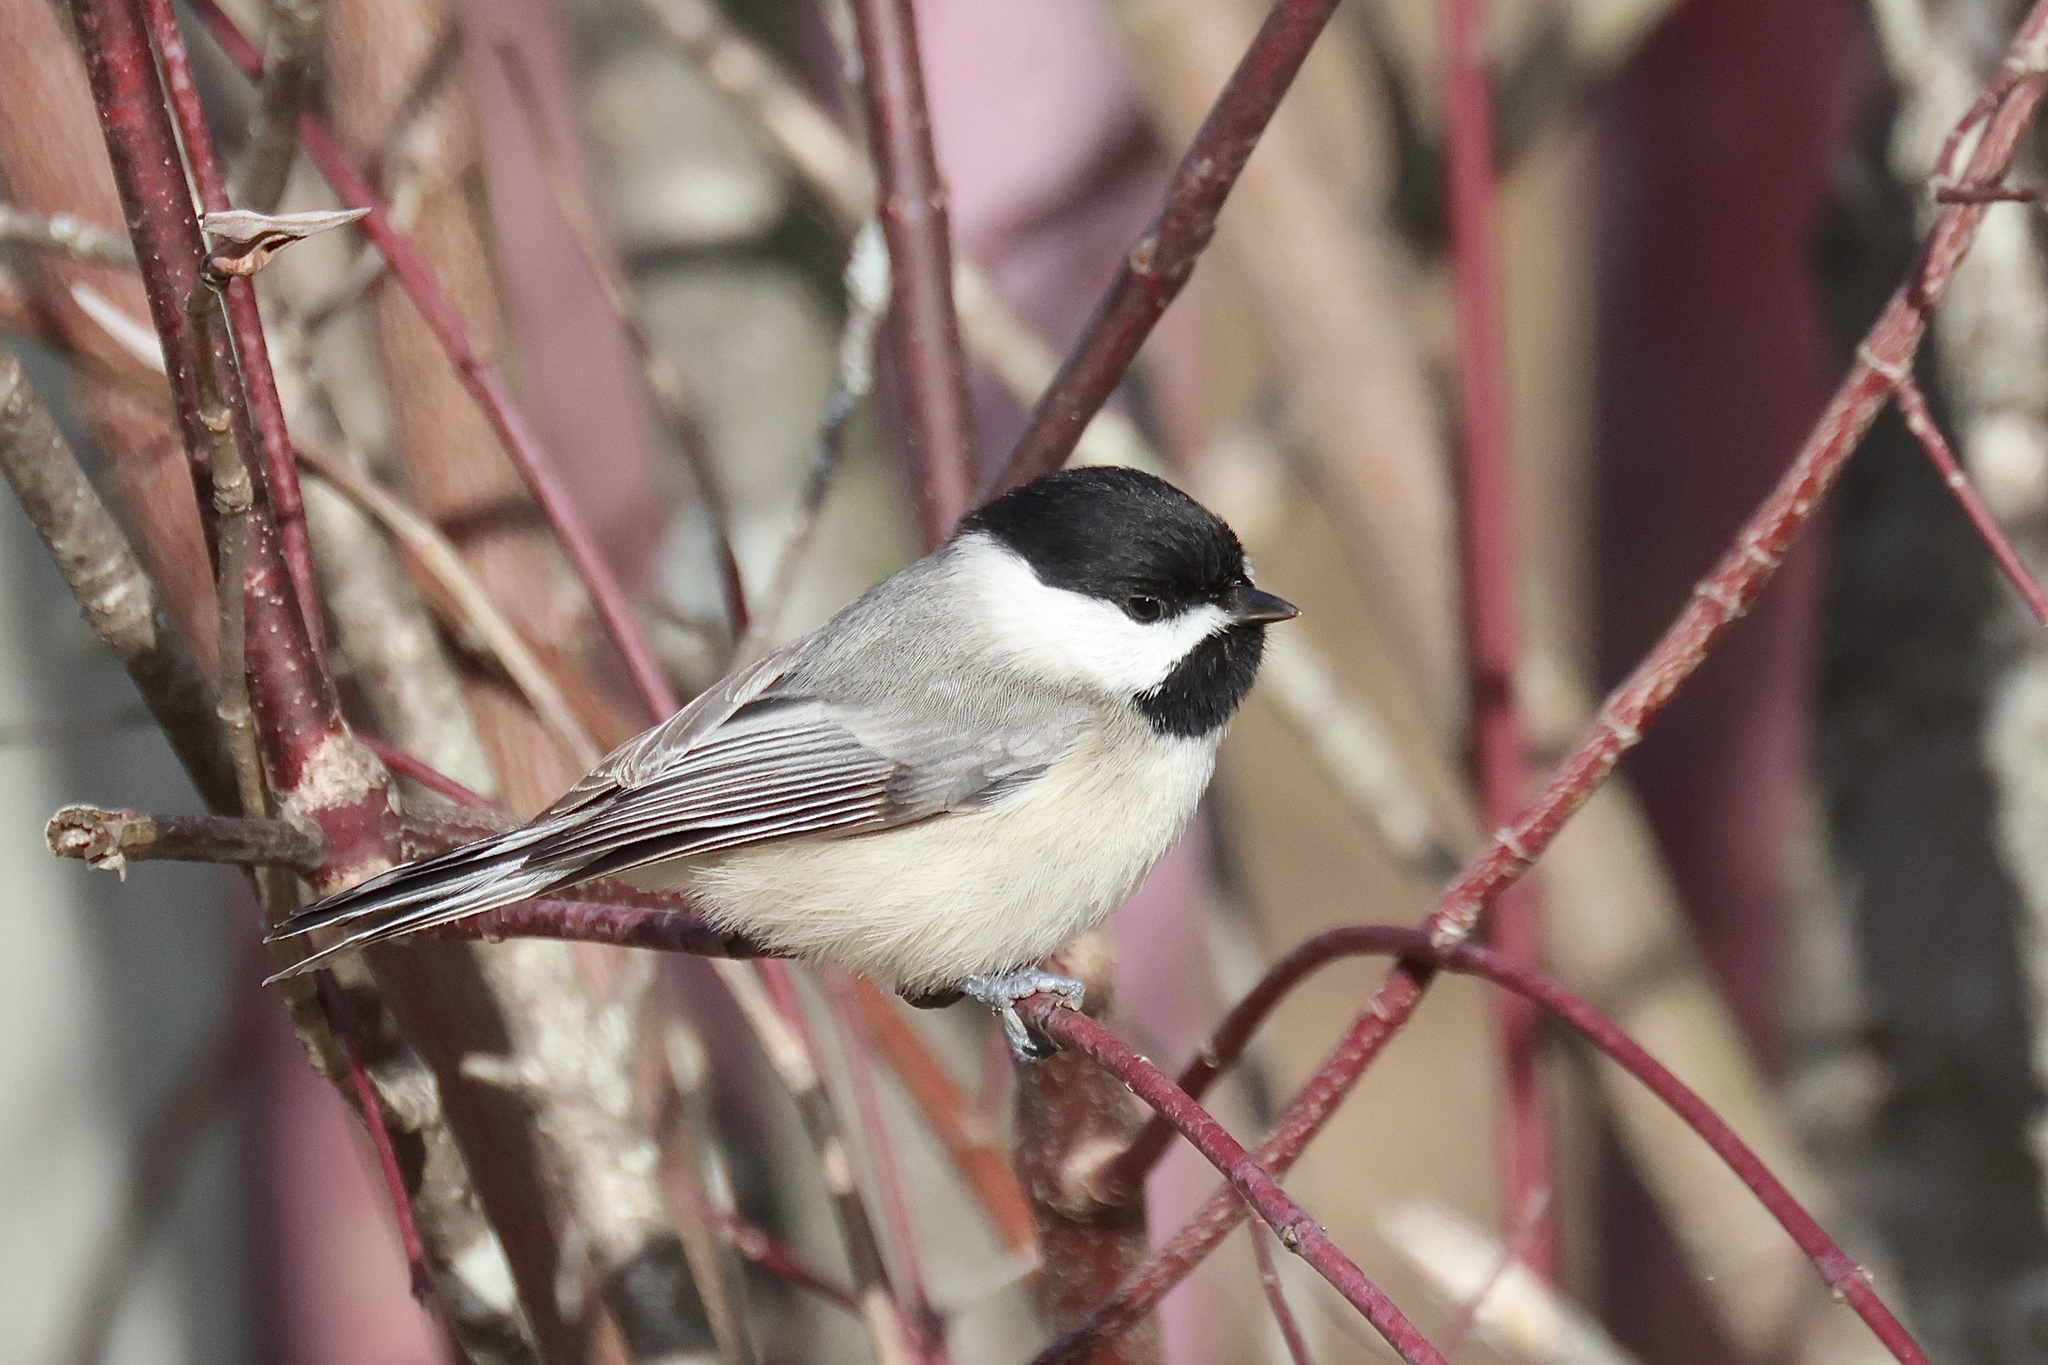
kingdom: Animalia
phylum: Chordata
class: Aves
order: Passeriformes
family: Paridae
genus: Poecile
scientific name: Poecile carolinensis
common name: Carolina chickadee
